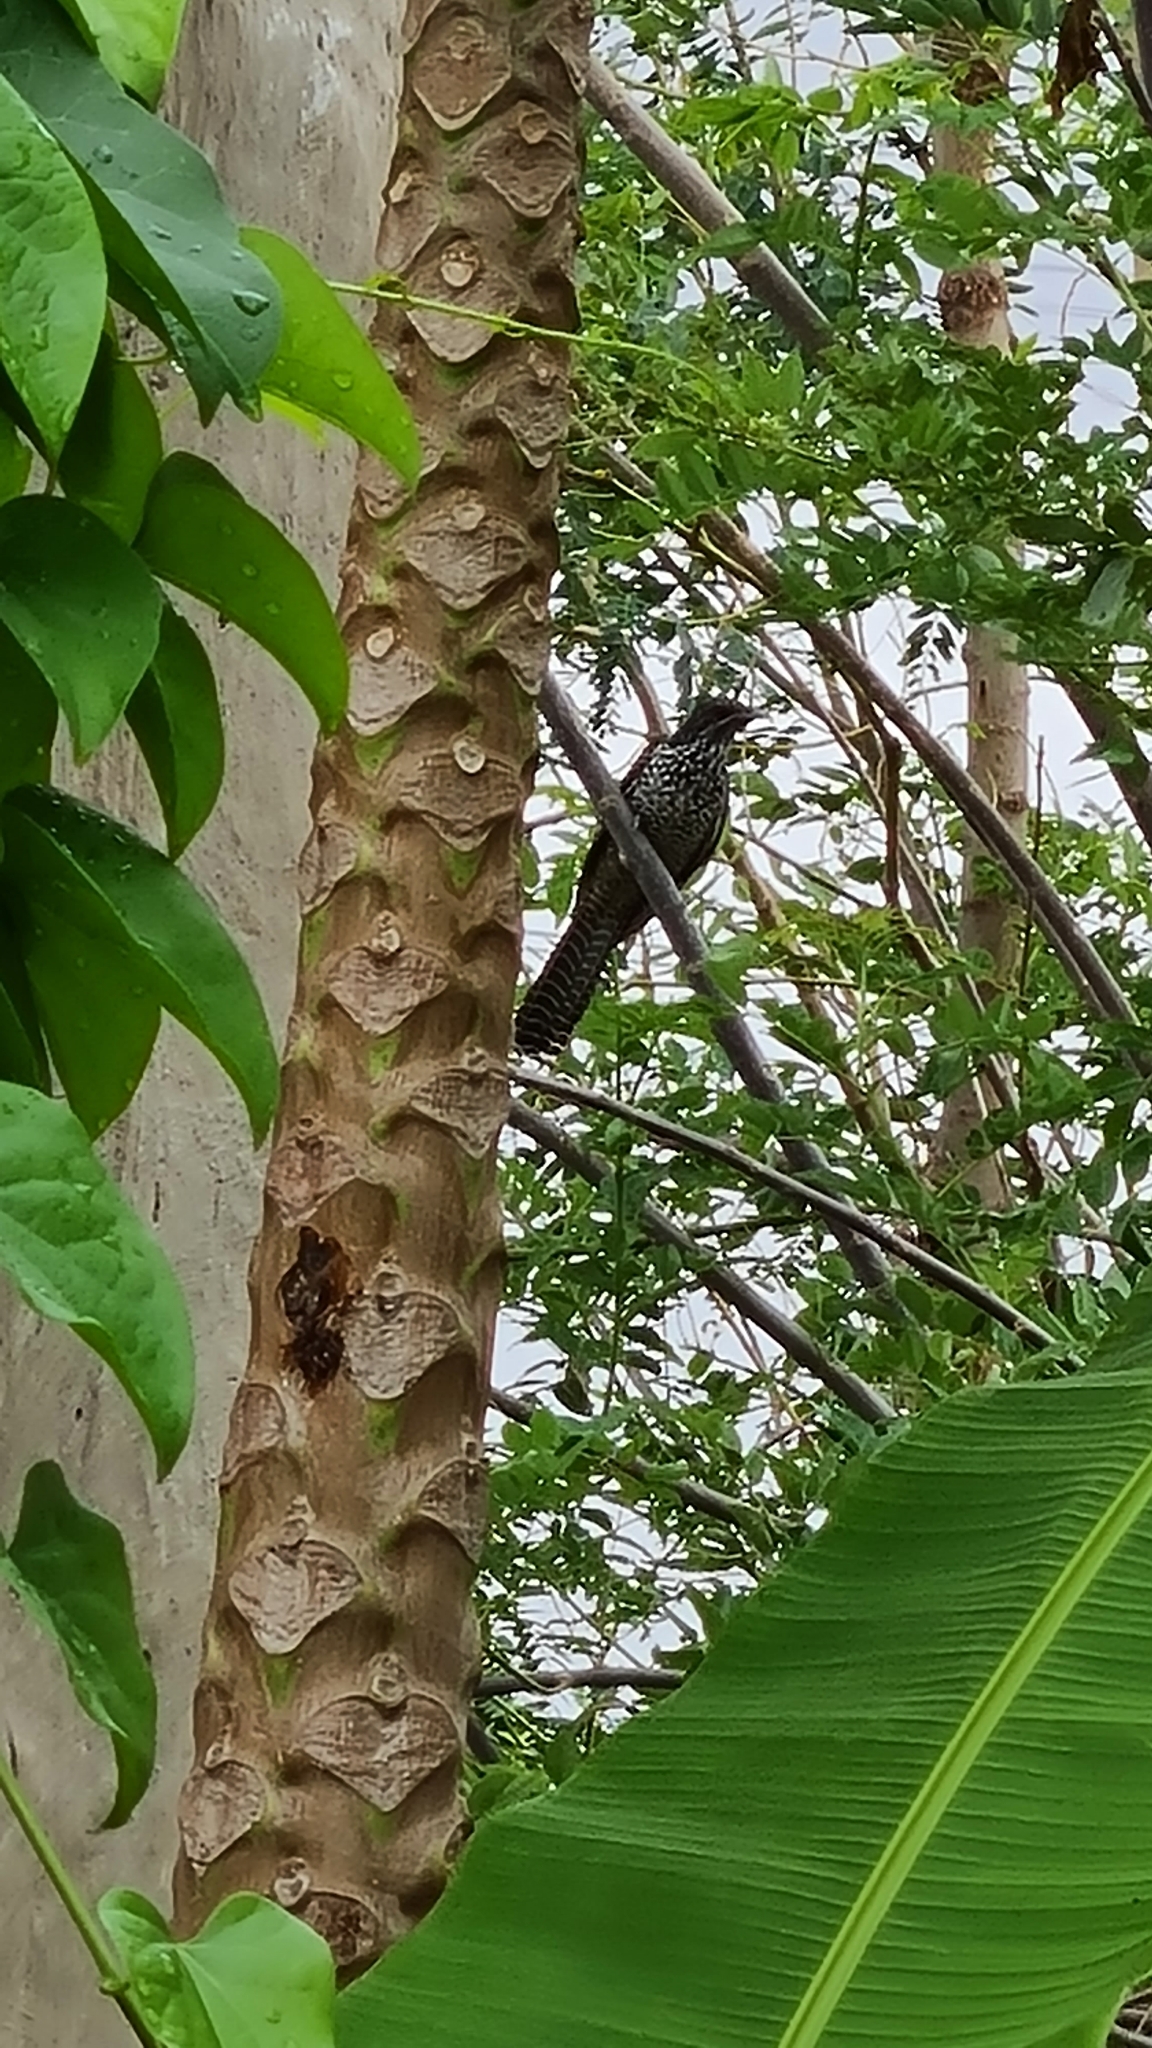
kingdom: Animalia
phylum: Chordata
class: Aves
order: Cuculiformes
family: Cuculidae
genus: Eudynamys
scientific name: Eudynamys scolopaceus
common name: Asian koel
